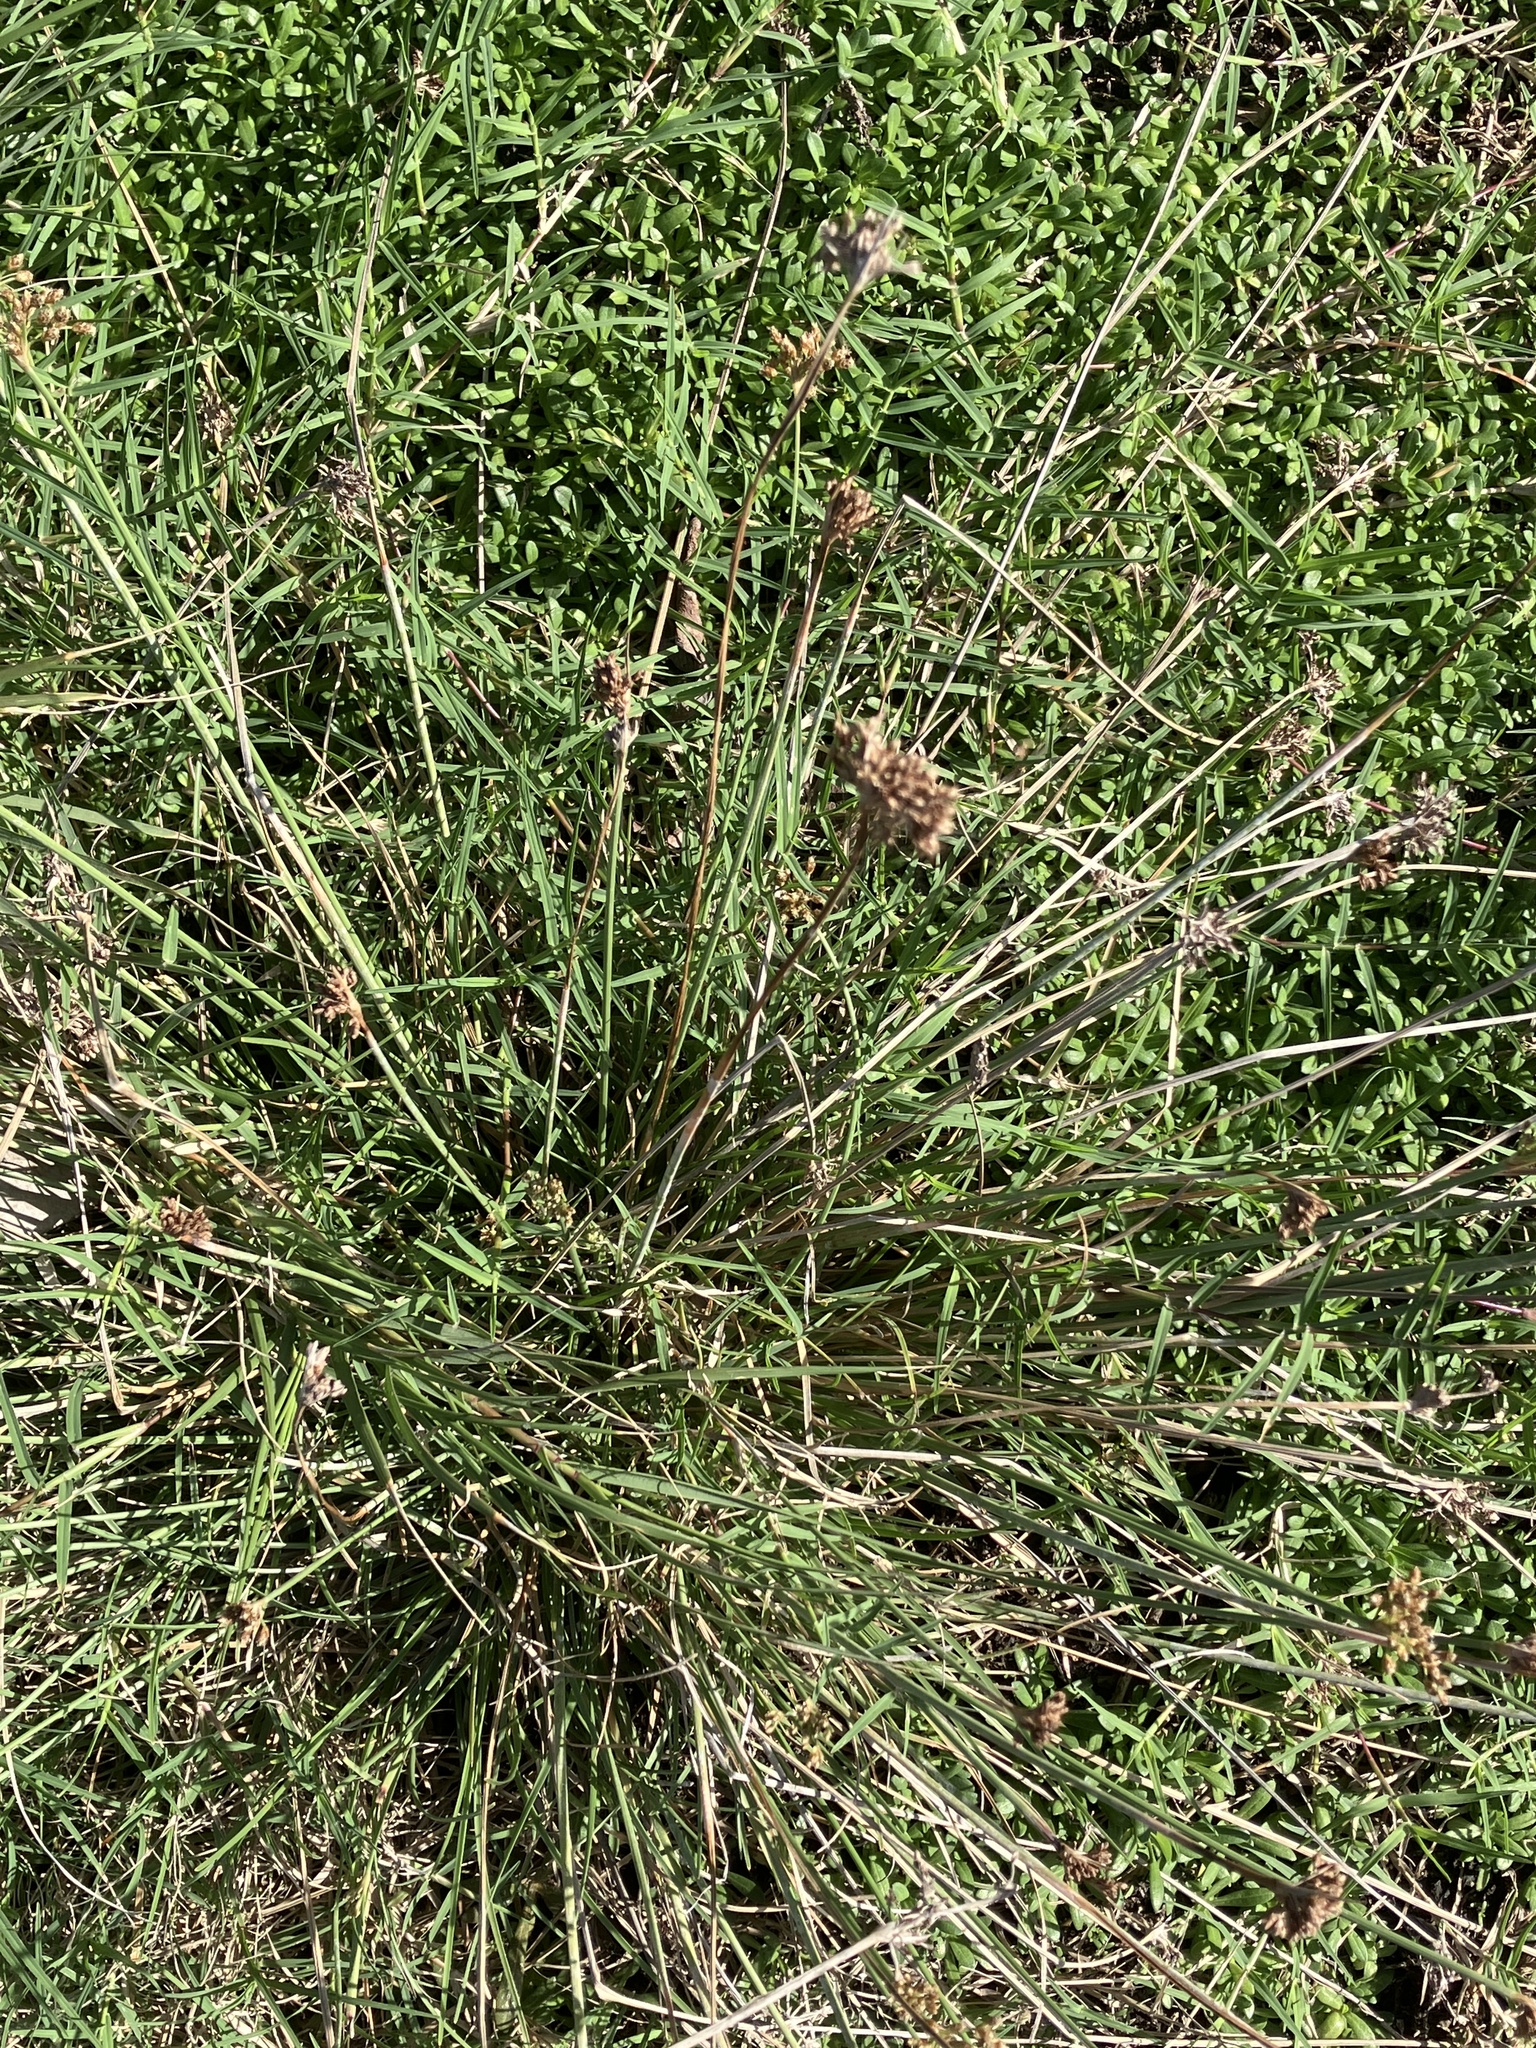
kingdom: Plantae
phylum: Tracheophyta
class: Liliopsida
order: Poales
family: Cyperaceae
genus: Fimbristylis
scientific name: Fimbristylis cymosa
